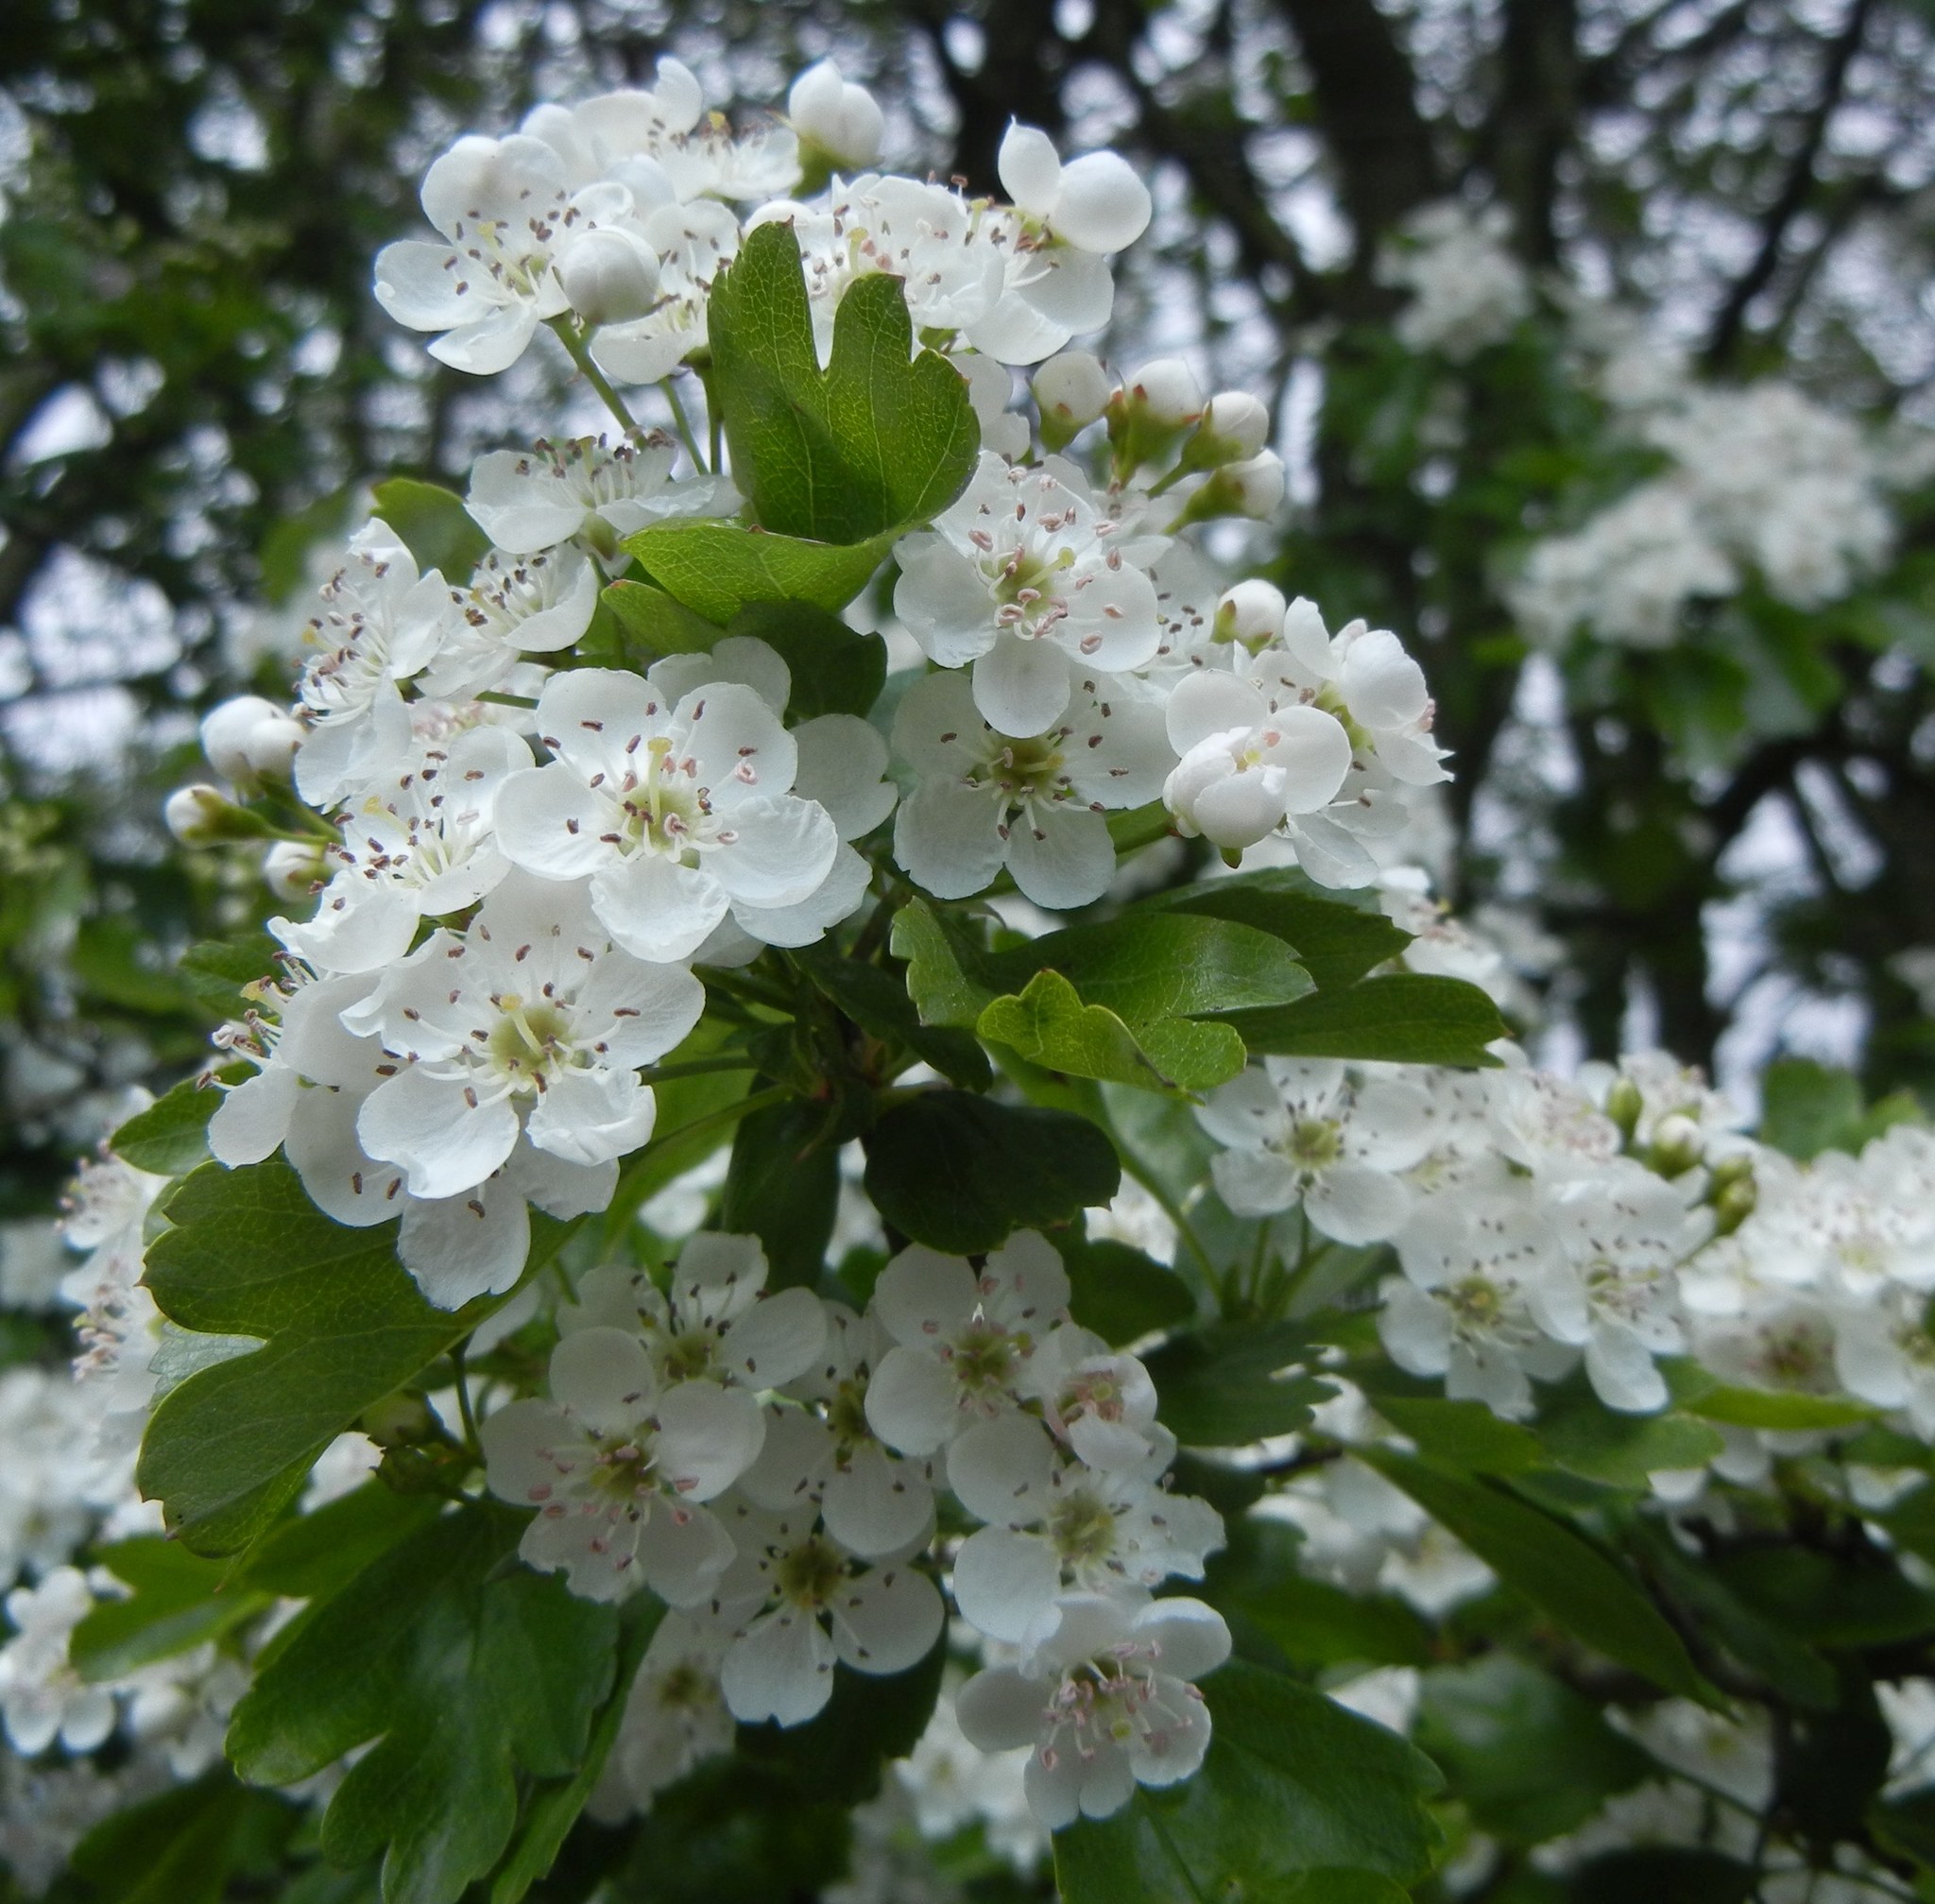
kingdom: Plantae
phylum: Tracheophyta
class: Magnoliopsida
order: Rosales
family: Rosaceae
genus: Crataegus
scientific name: Crataegus monogyna
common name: Hawthorn
